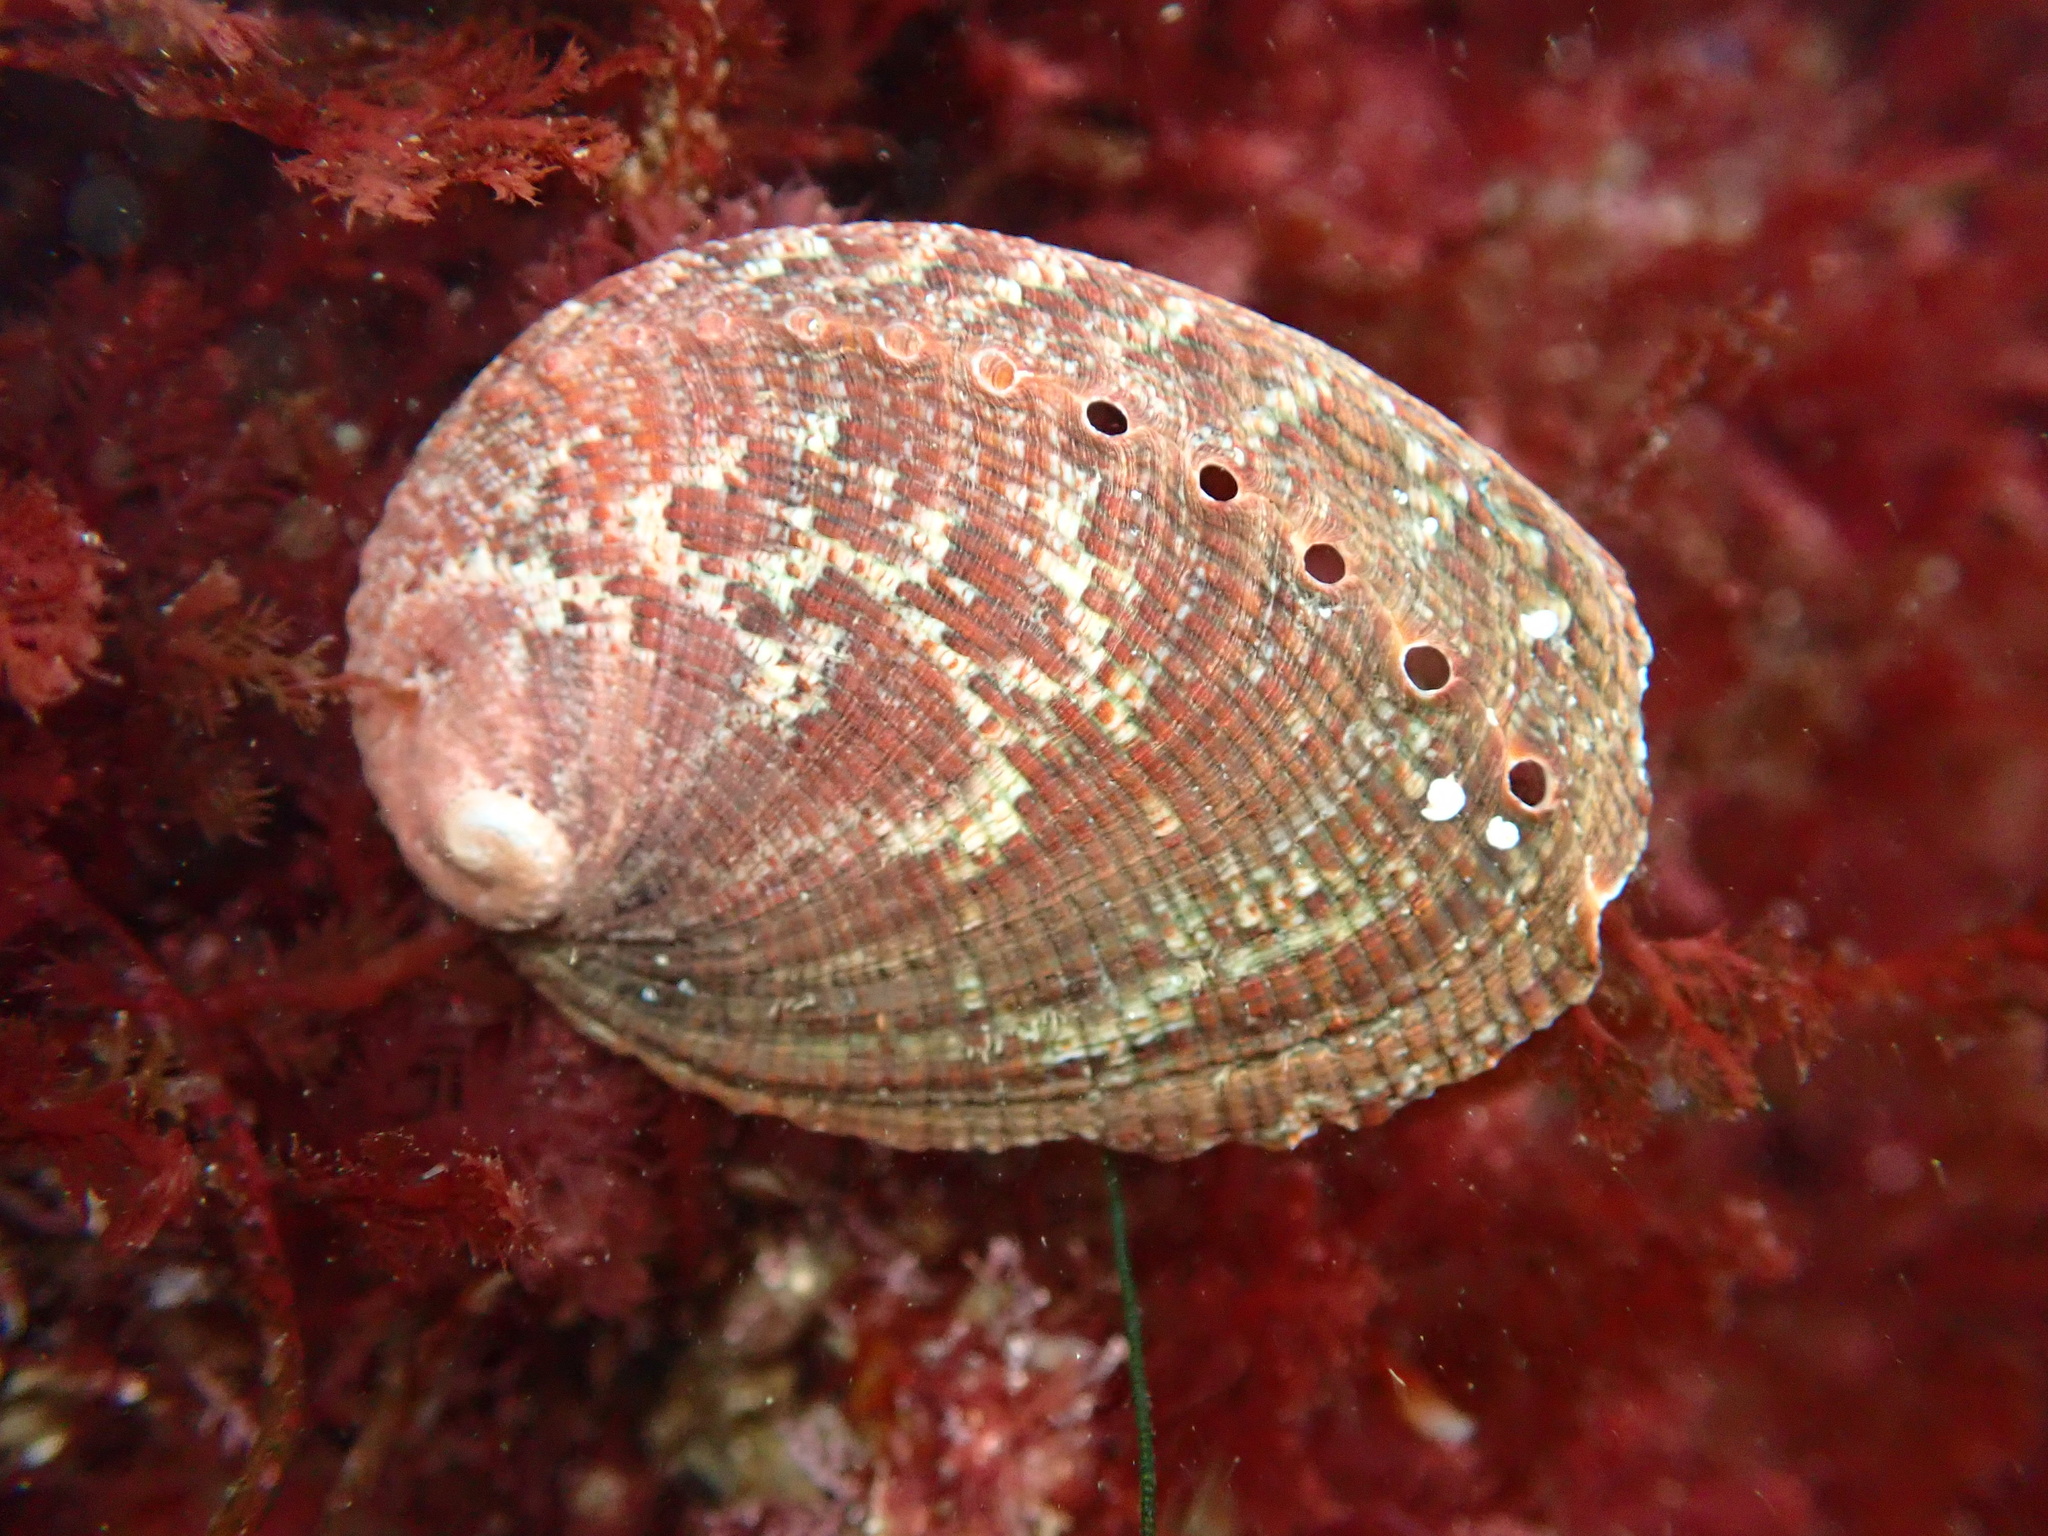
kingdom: Animalia
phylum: Mollusca
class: Gastropoda
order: Lepetellida
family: Haliotidae
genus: Haliotis
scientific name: Haliotis fulgens
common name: Green abalone
